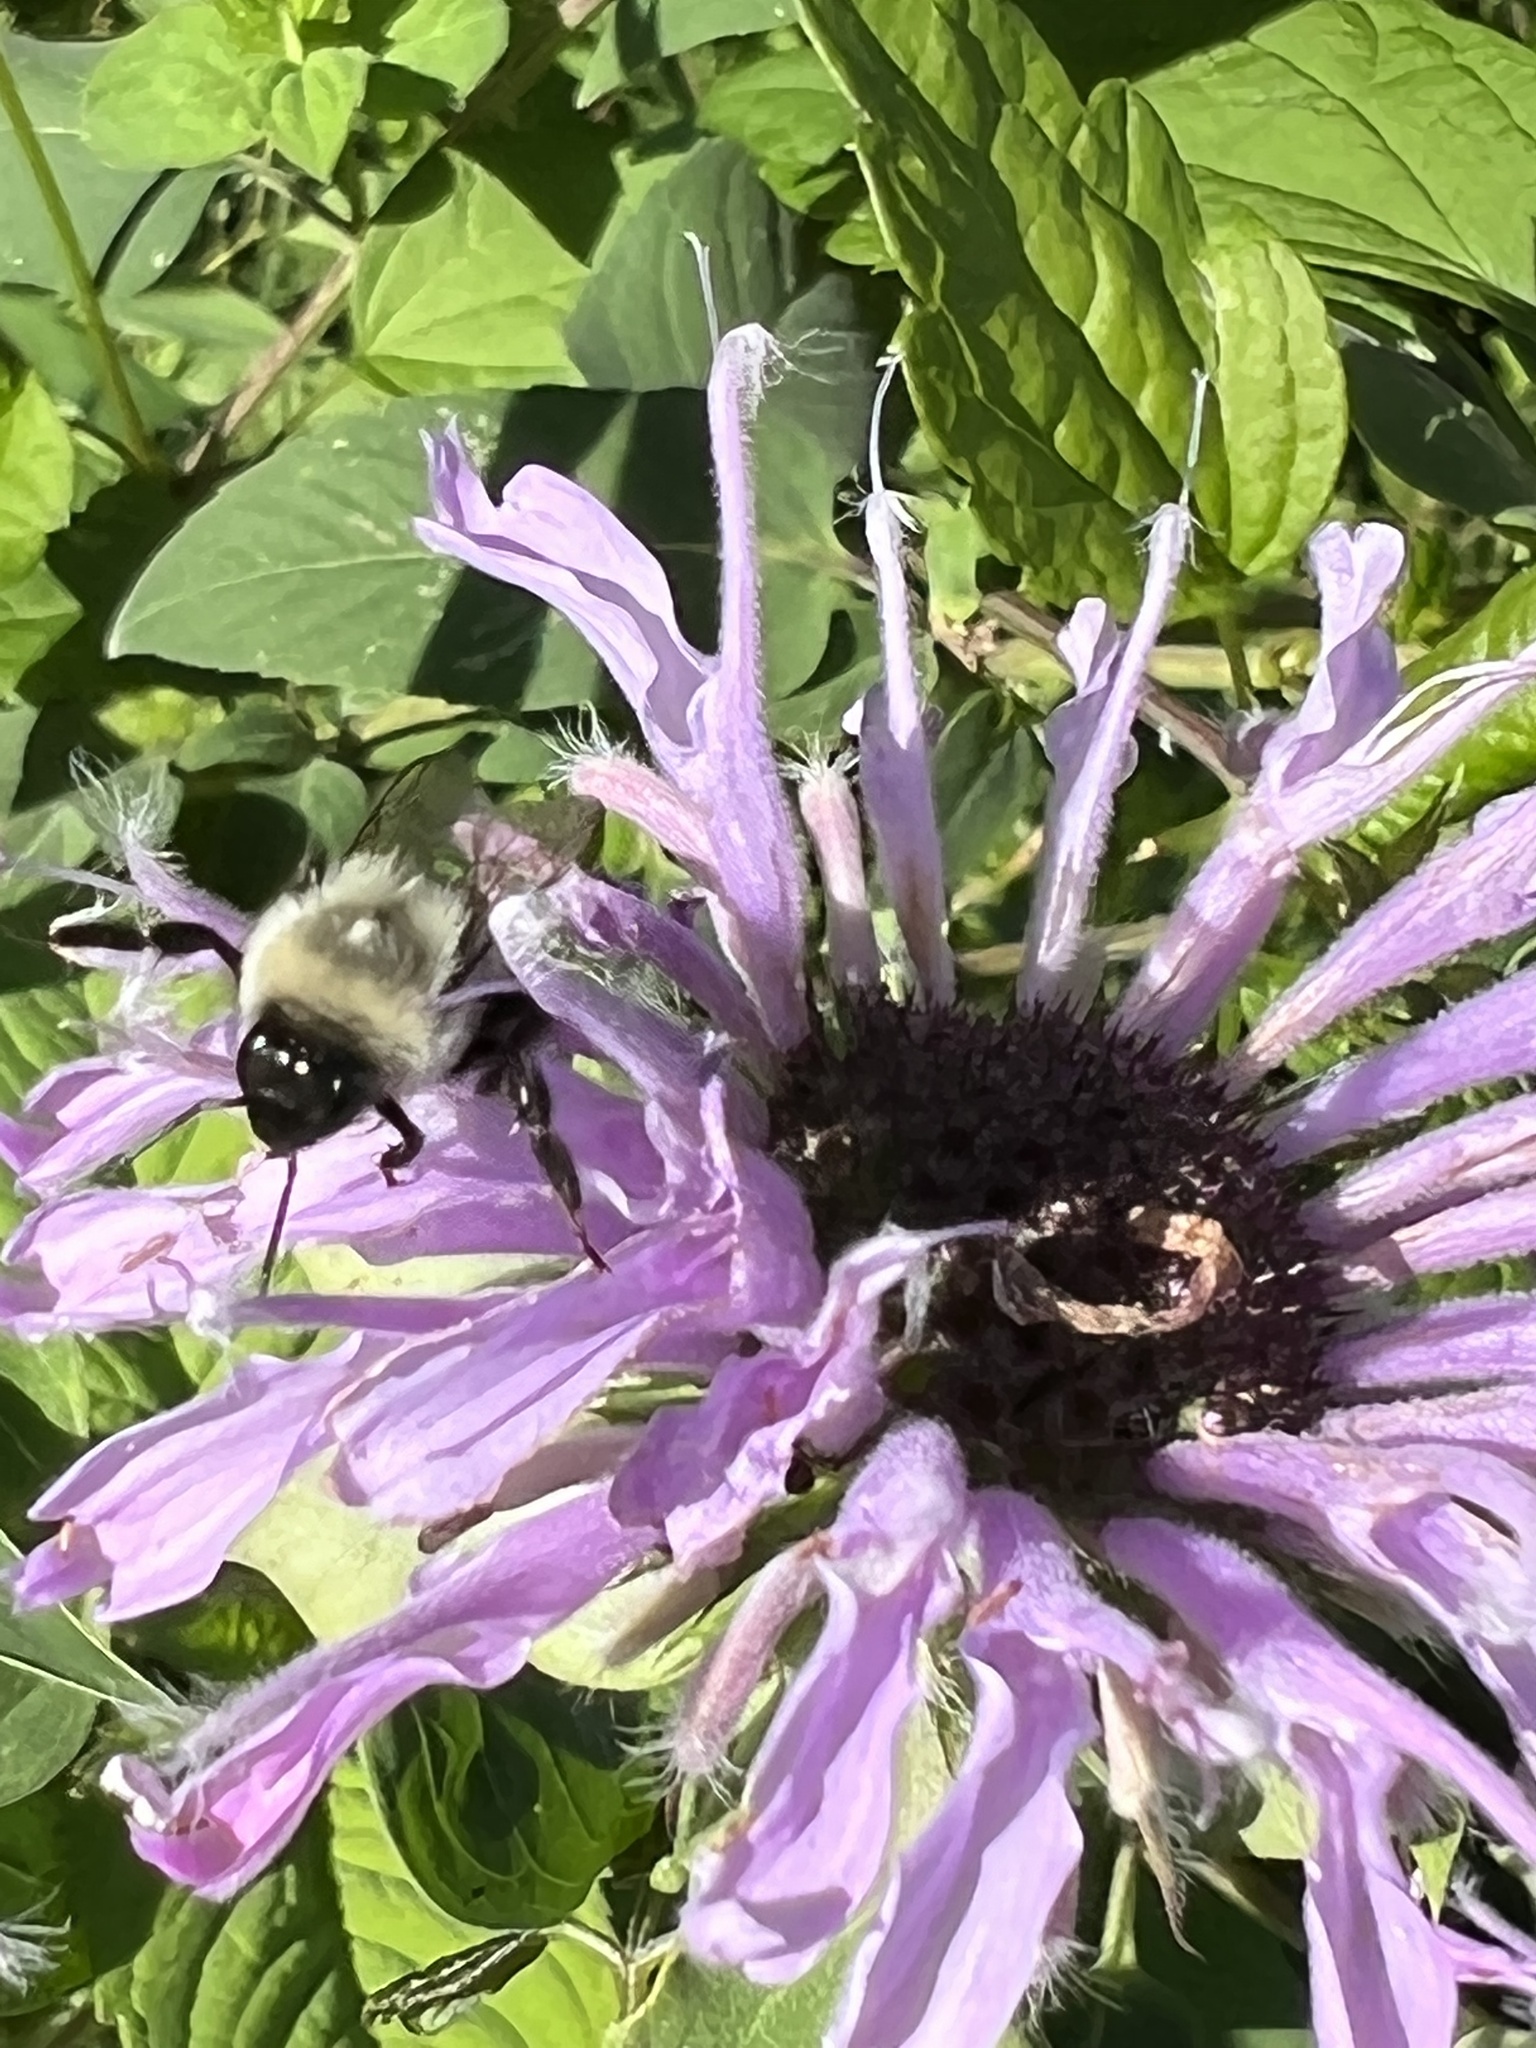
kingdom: Animalia
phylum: Arthropoda
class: Insecta
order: Hymenoptera
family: Apidae
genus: Bombus
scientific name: Bombus impatiens
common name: Common eastern bumble bee
